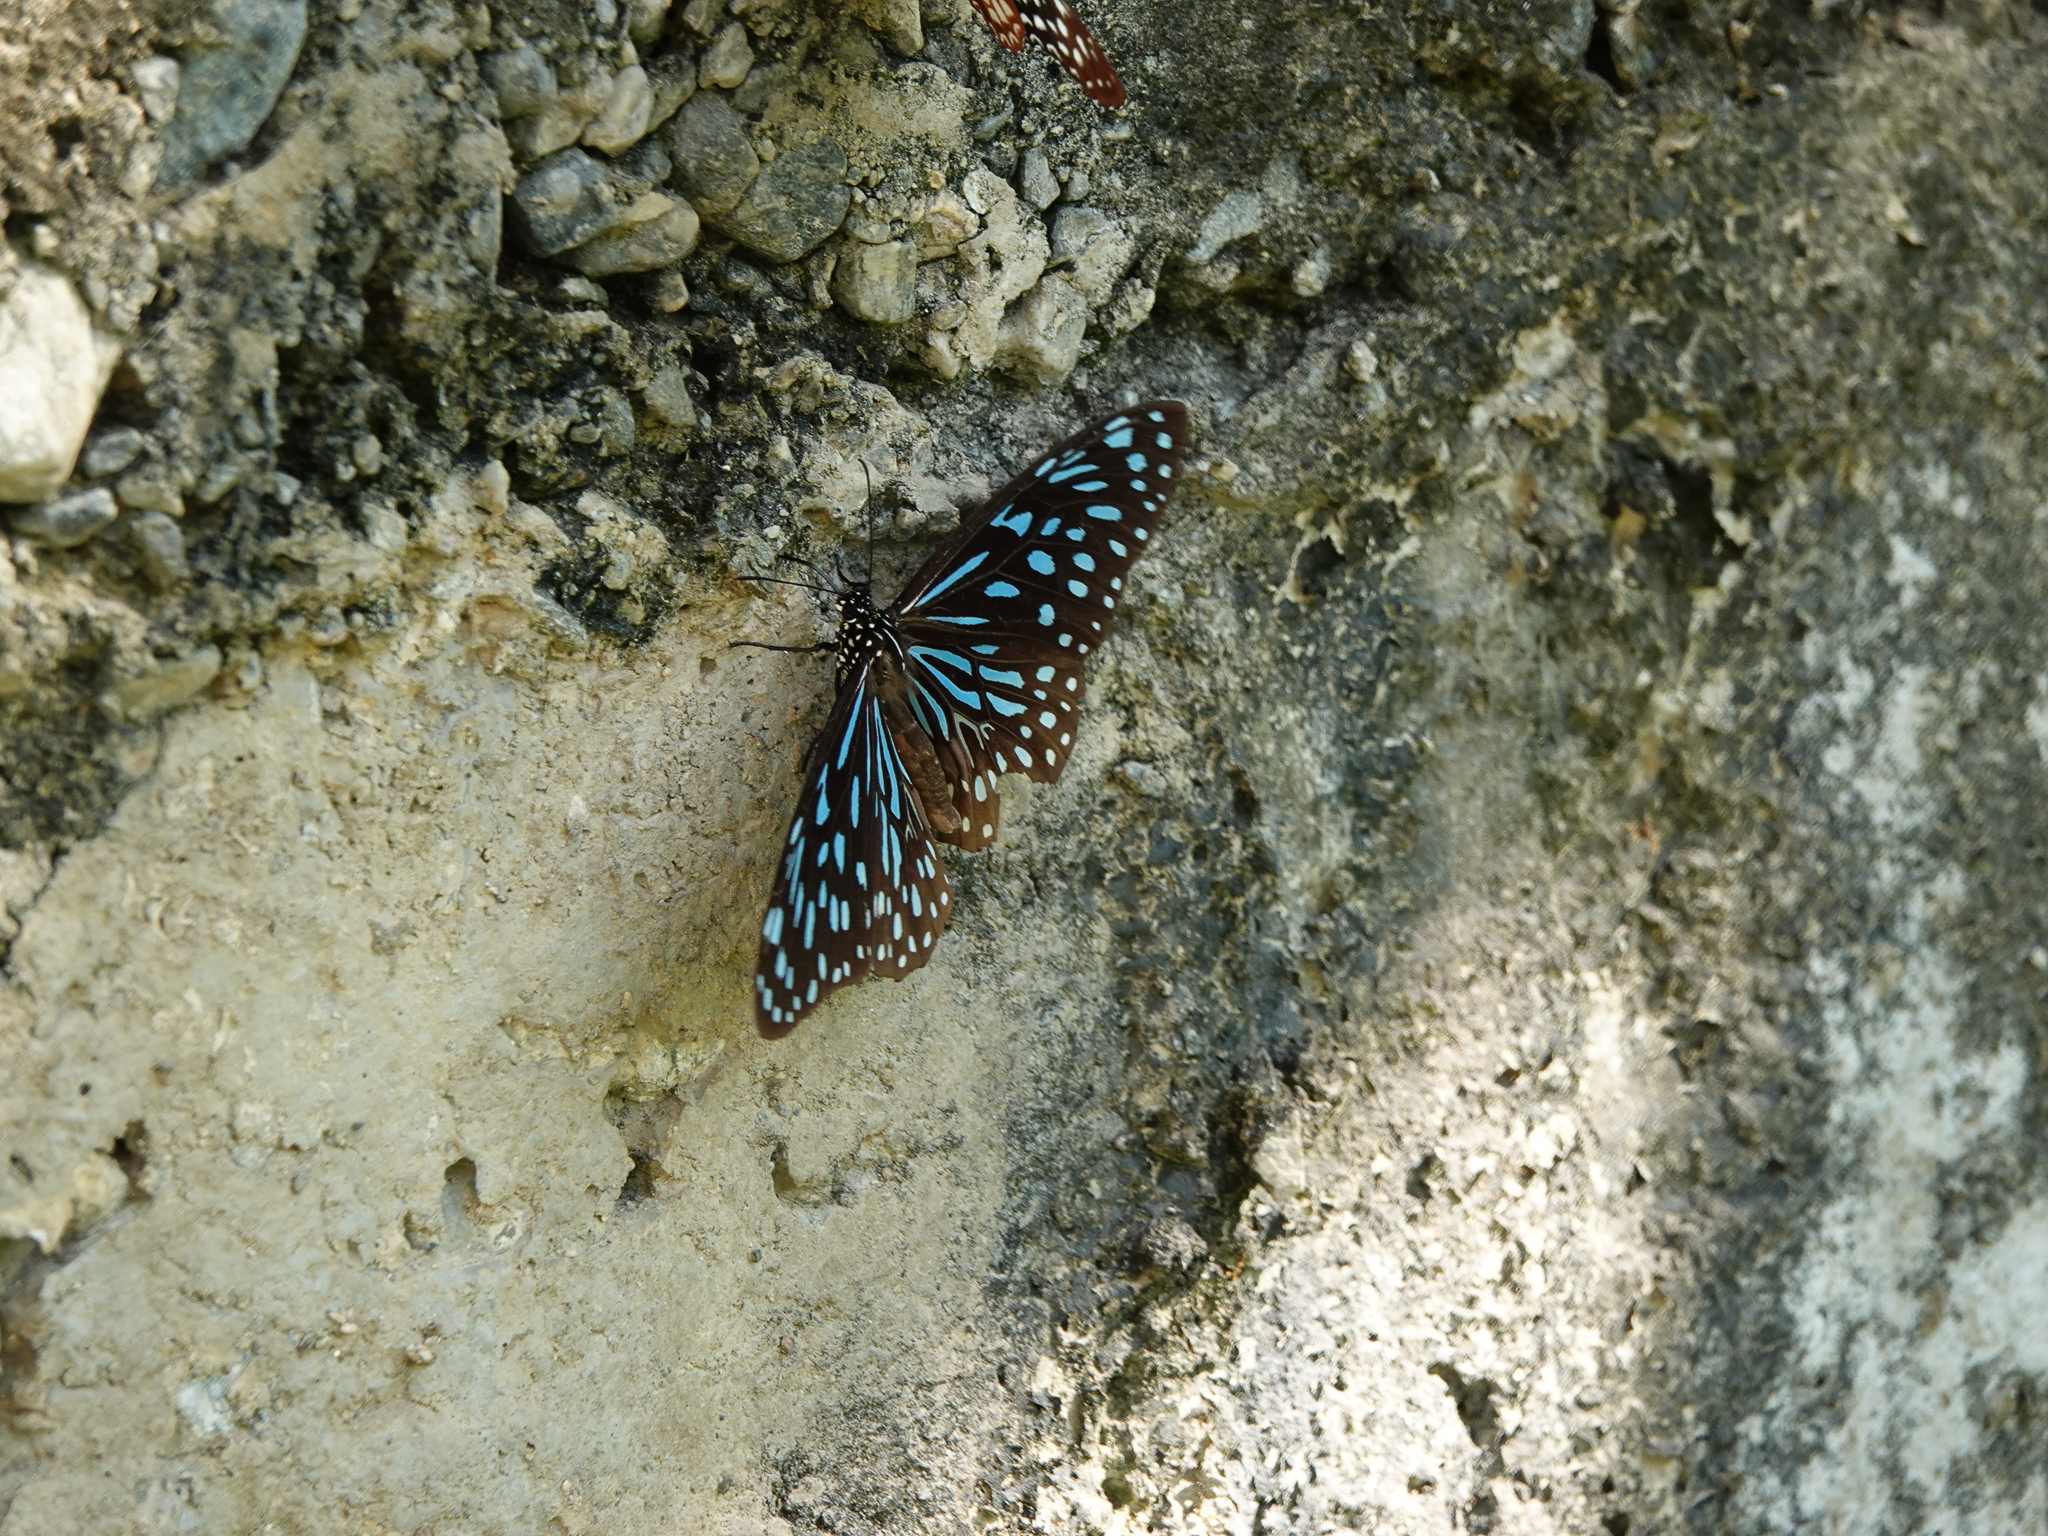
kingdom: Animalia
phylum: Arthropoda
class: Insecta
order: Lepidoptera
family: Nymphalidae
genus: Tirumala
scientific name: Tirumala septentrionis
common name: Dark blue tiger butterfly
